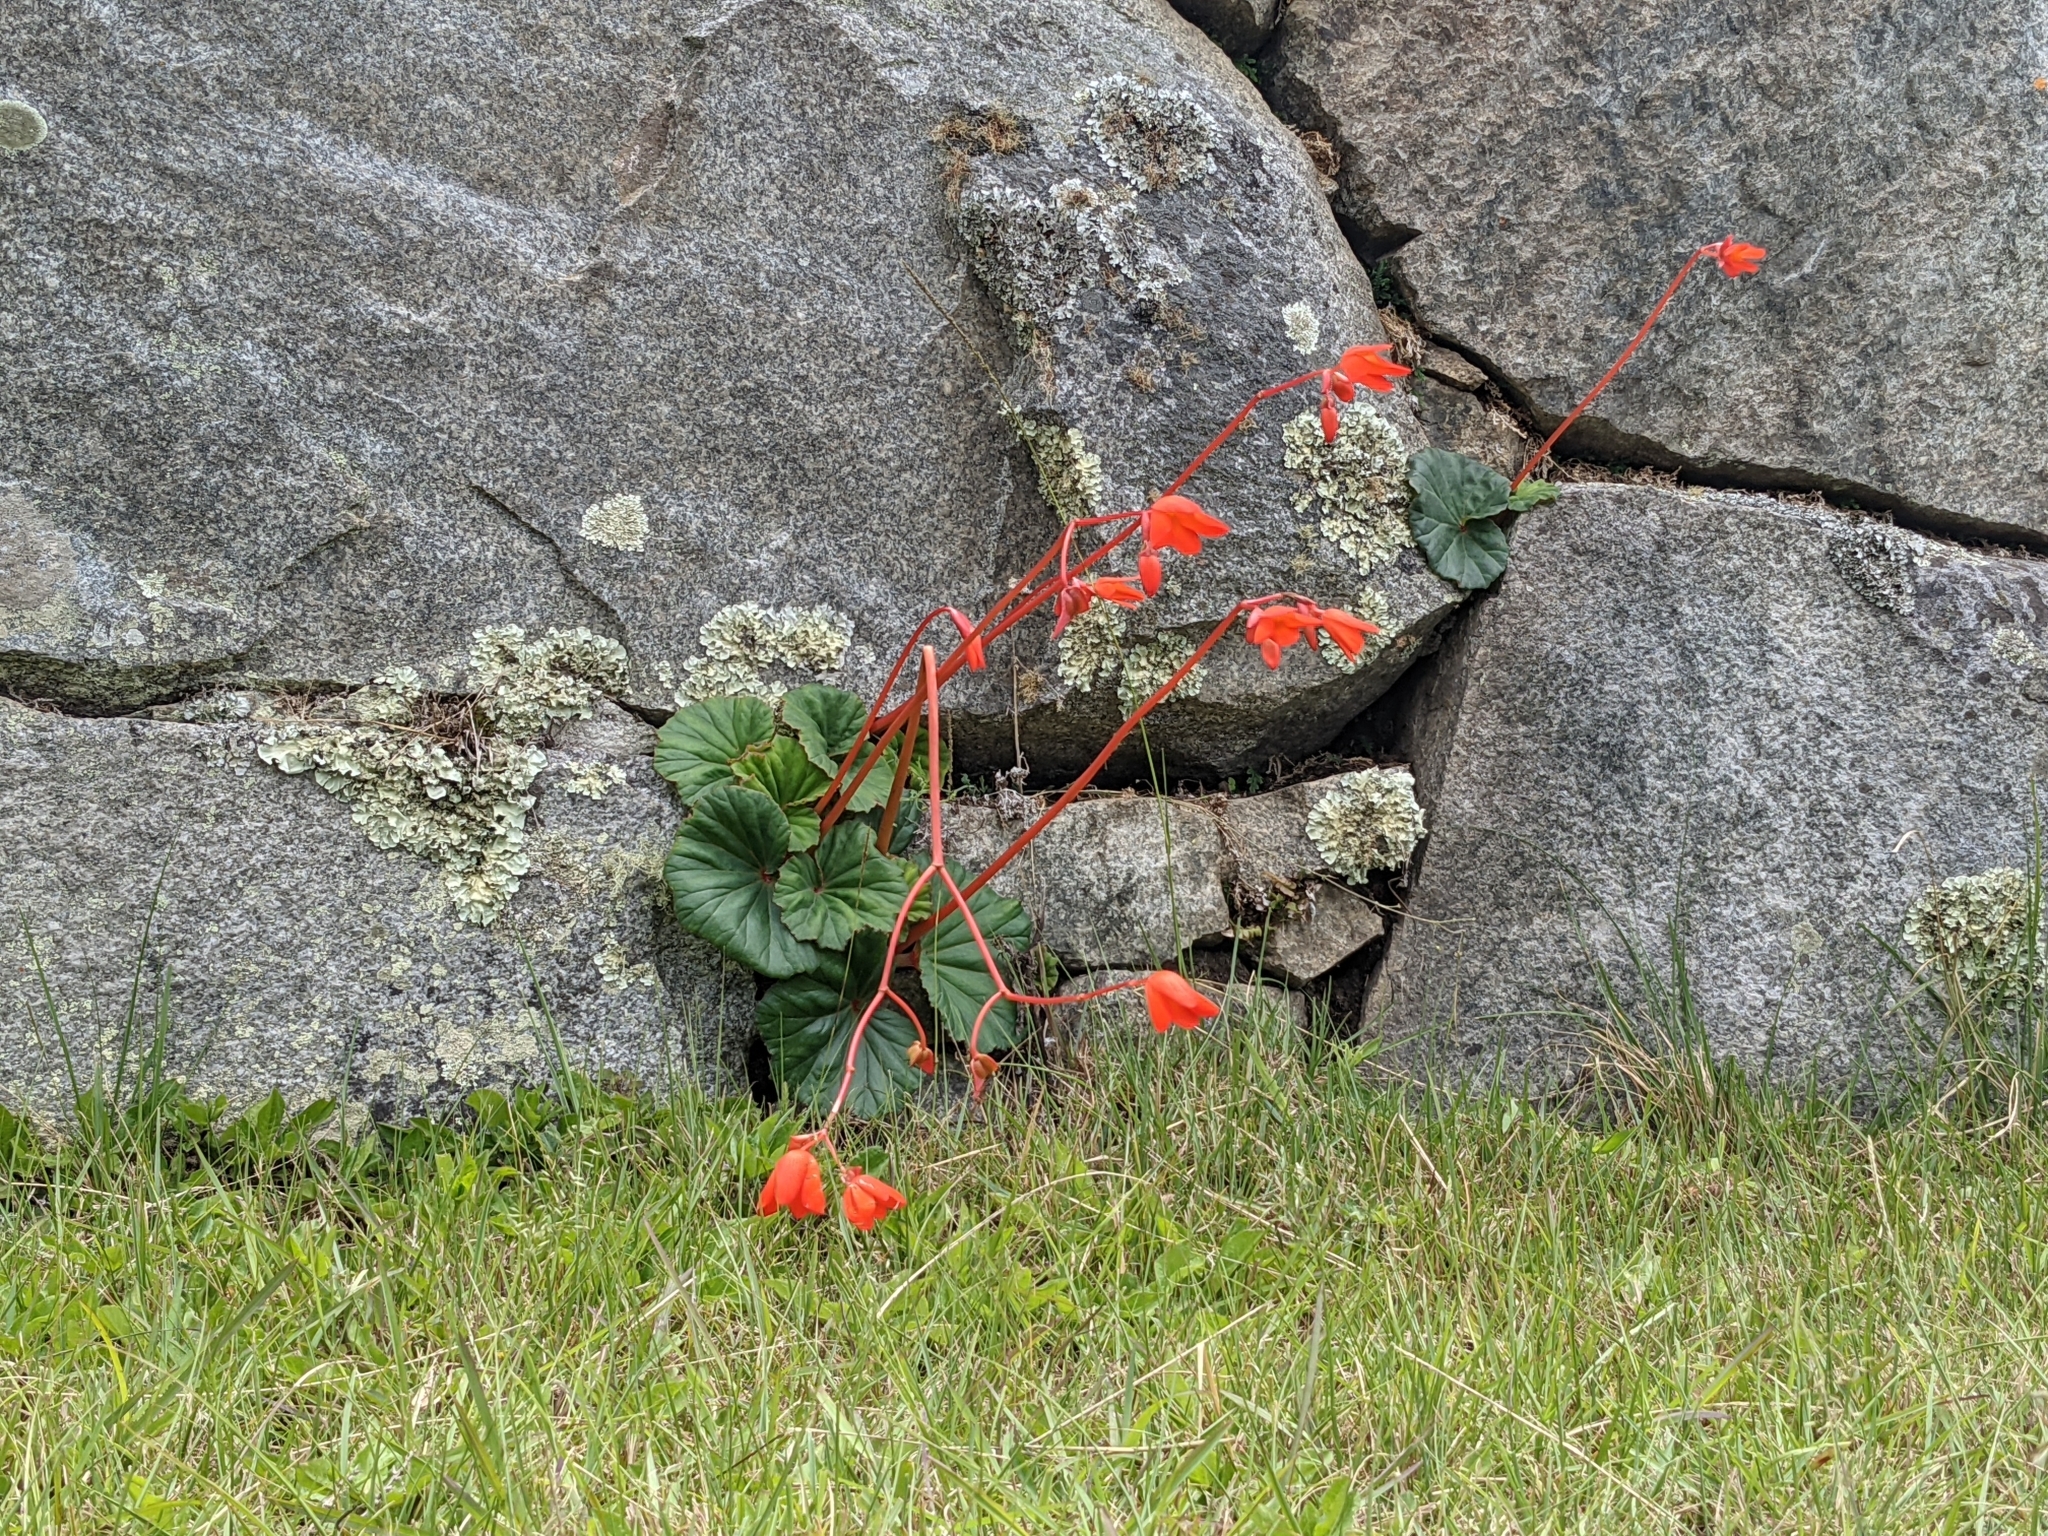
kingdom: Plantae
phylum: Tracheophyta
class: Magnoliopsida
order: Cucurbitales
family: Begoniaceae
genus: Begonia
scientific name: Begonia veitchii
